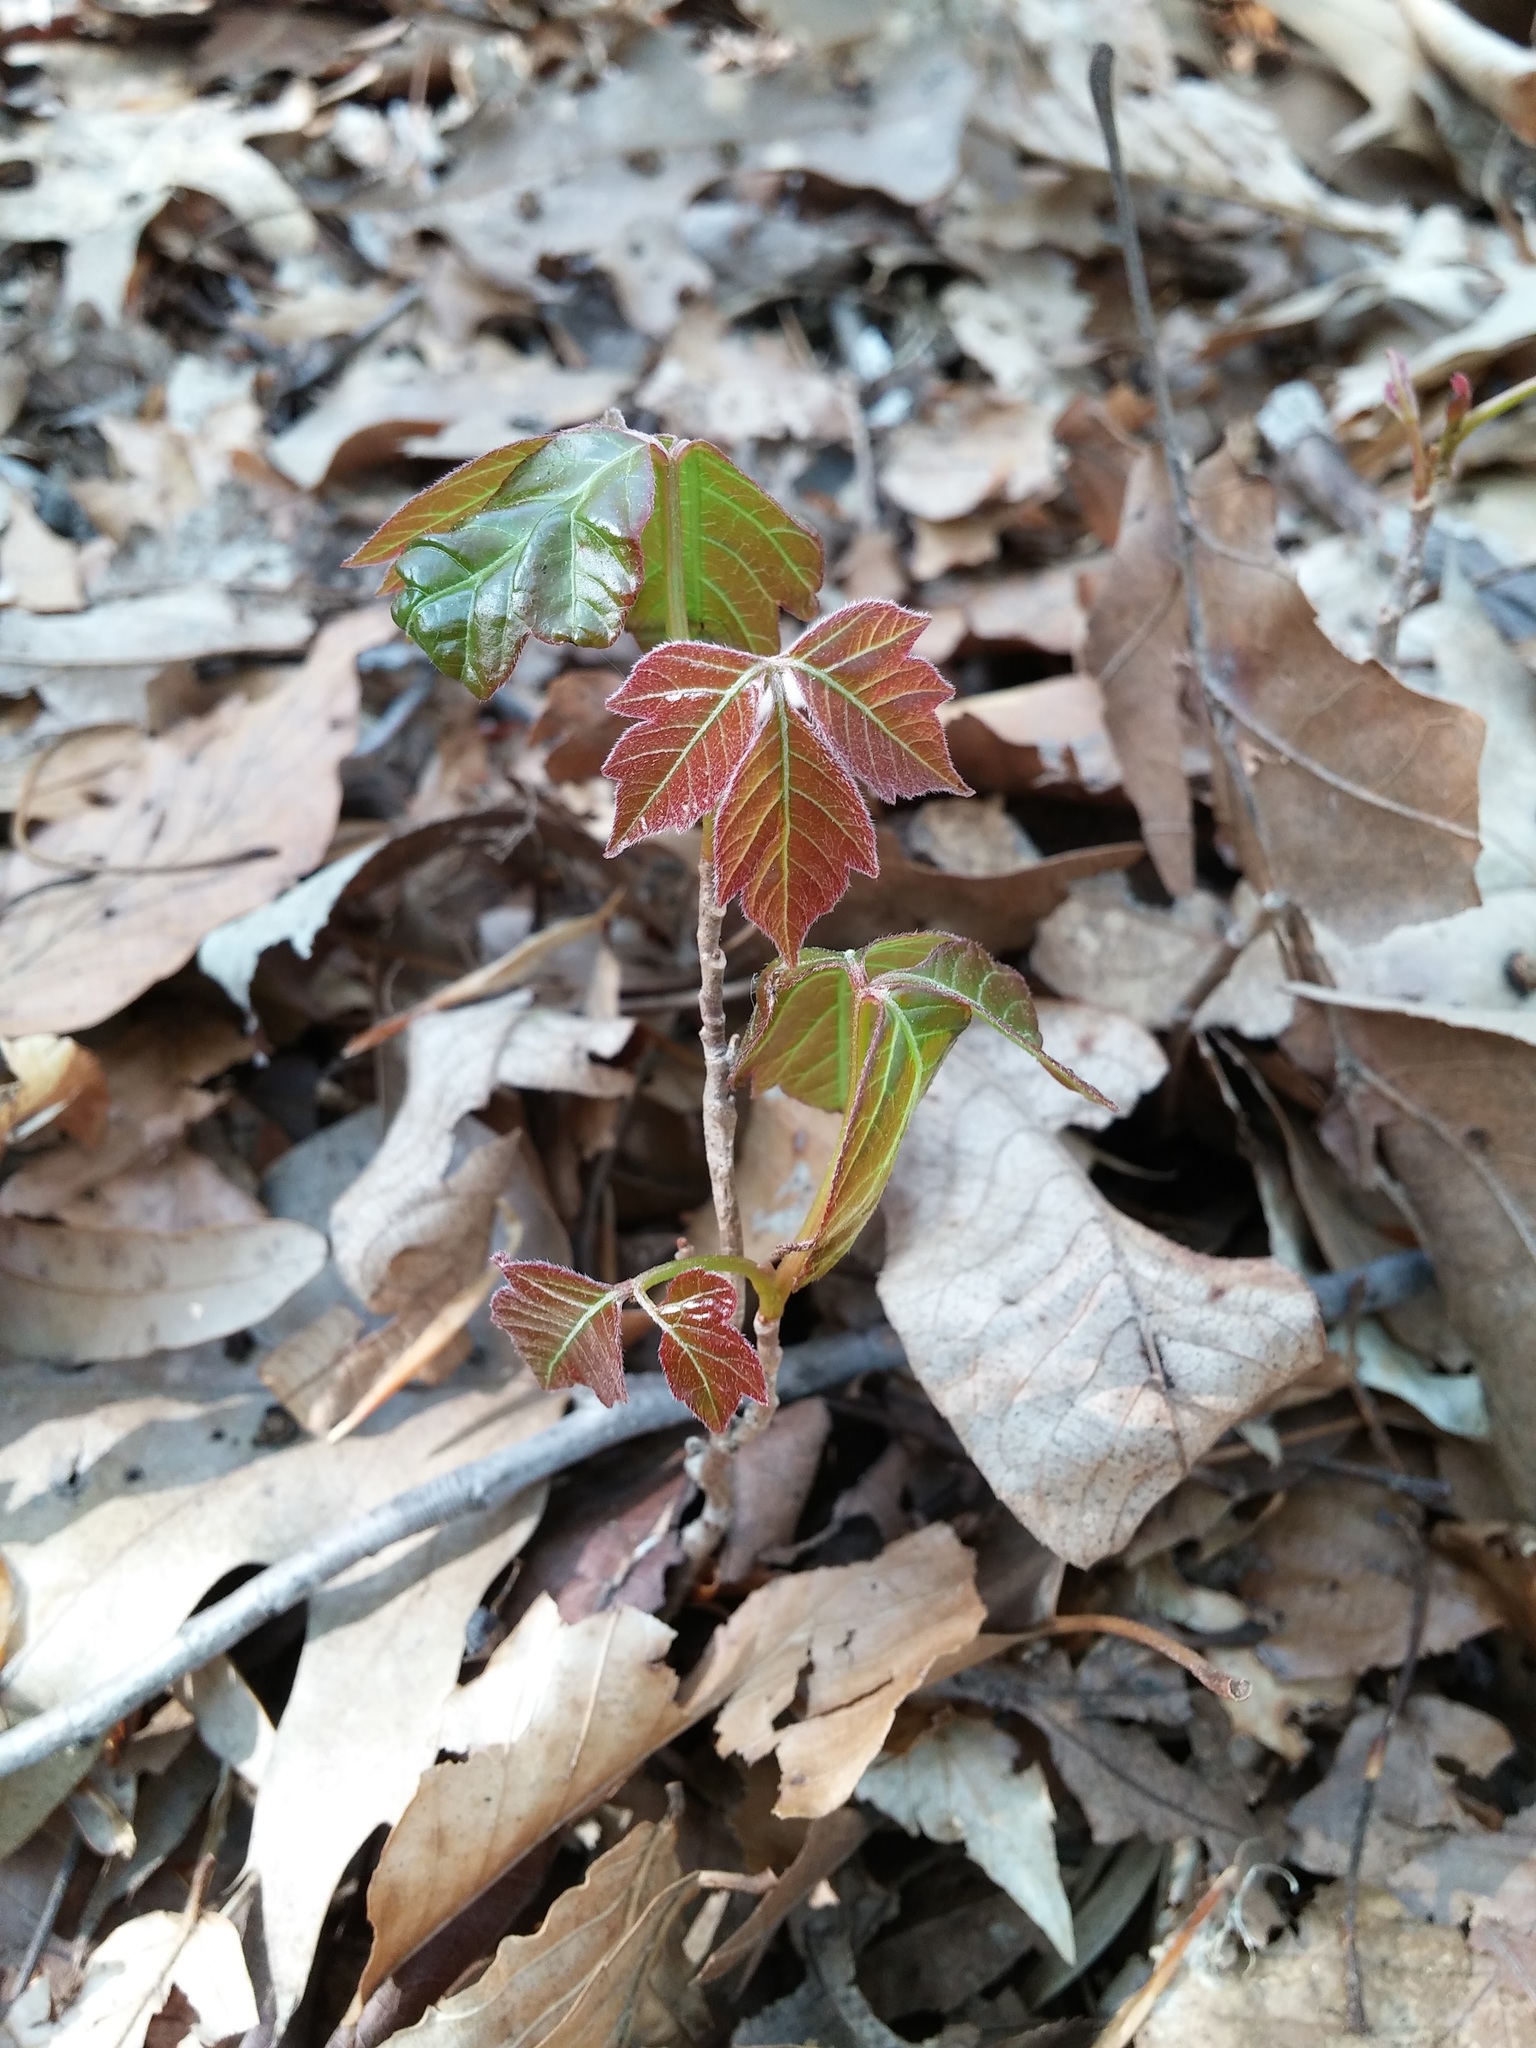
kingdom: Plantae
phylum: Tracheophyta
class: Magnoliopsida
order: Sapindales
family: Anacardiaceae
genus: Toxicodendron
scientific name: Toxicodendron radicans
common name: Poison ivy
